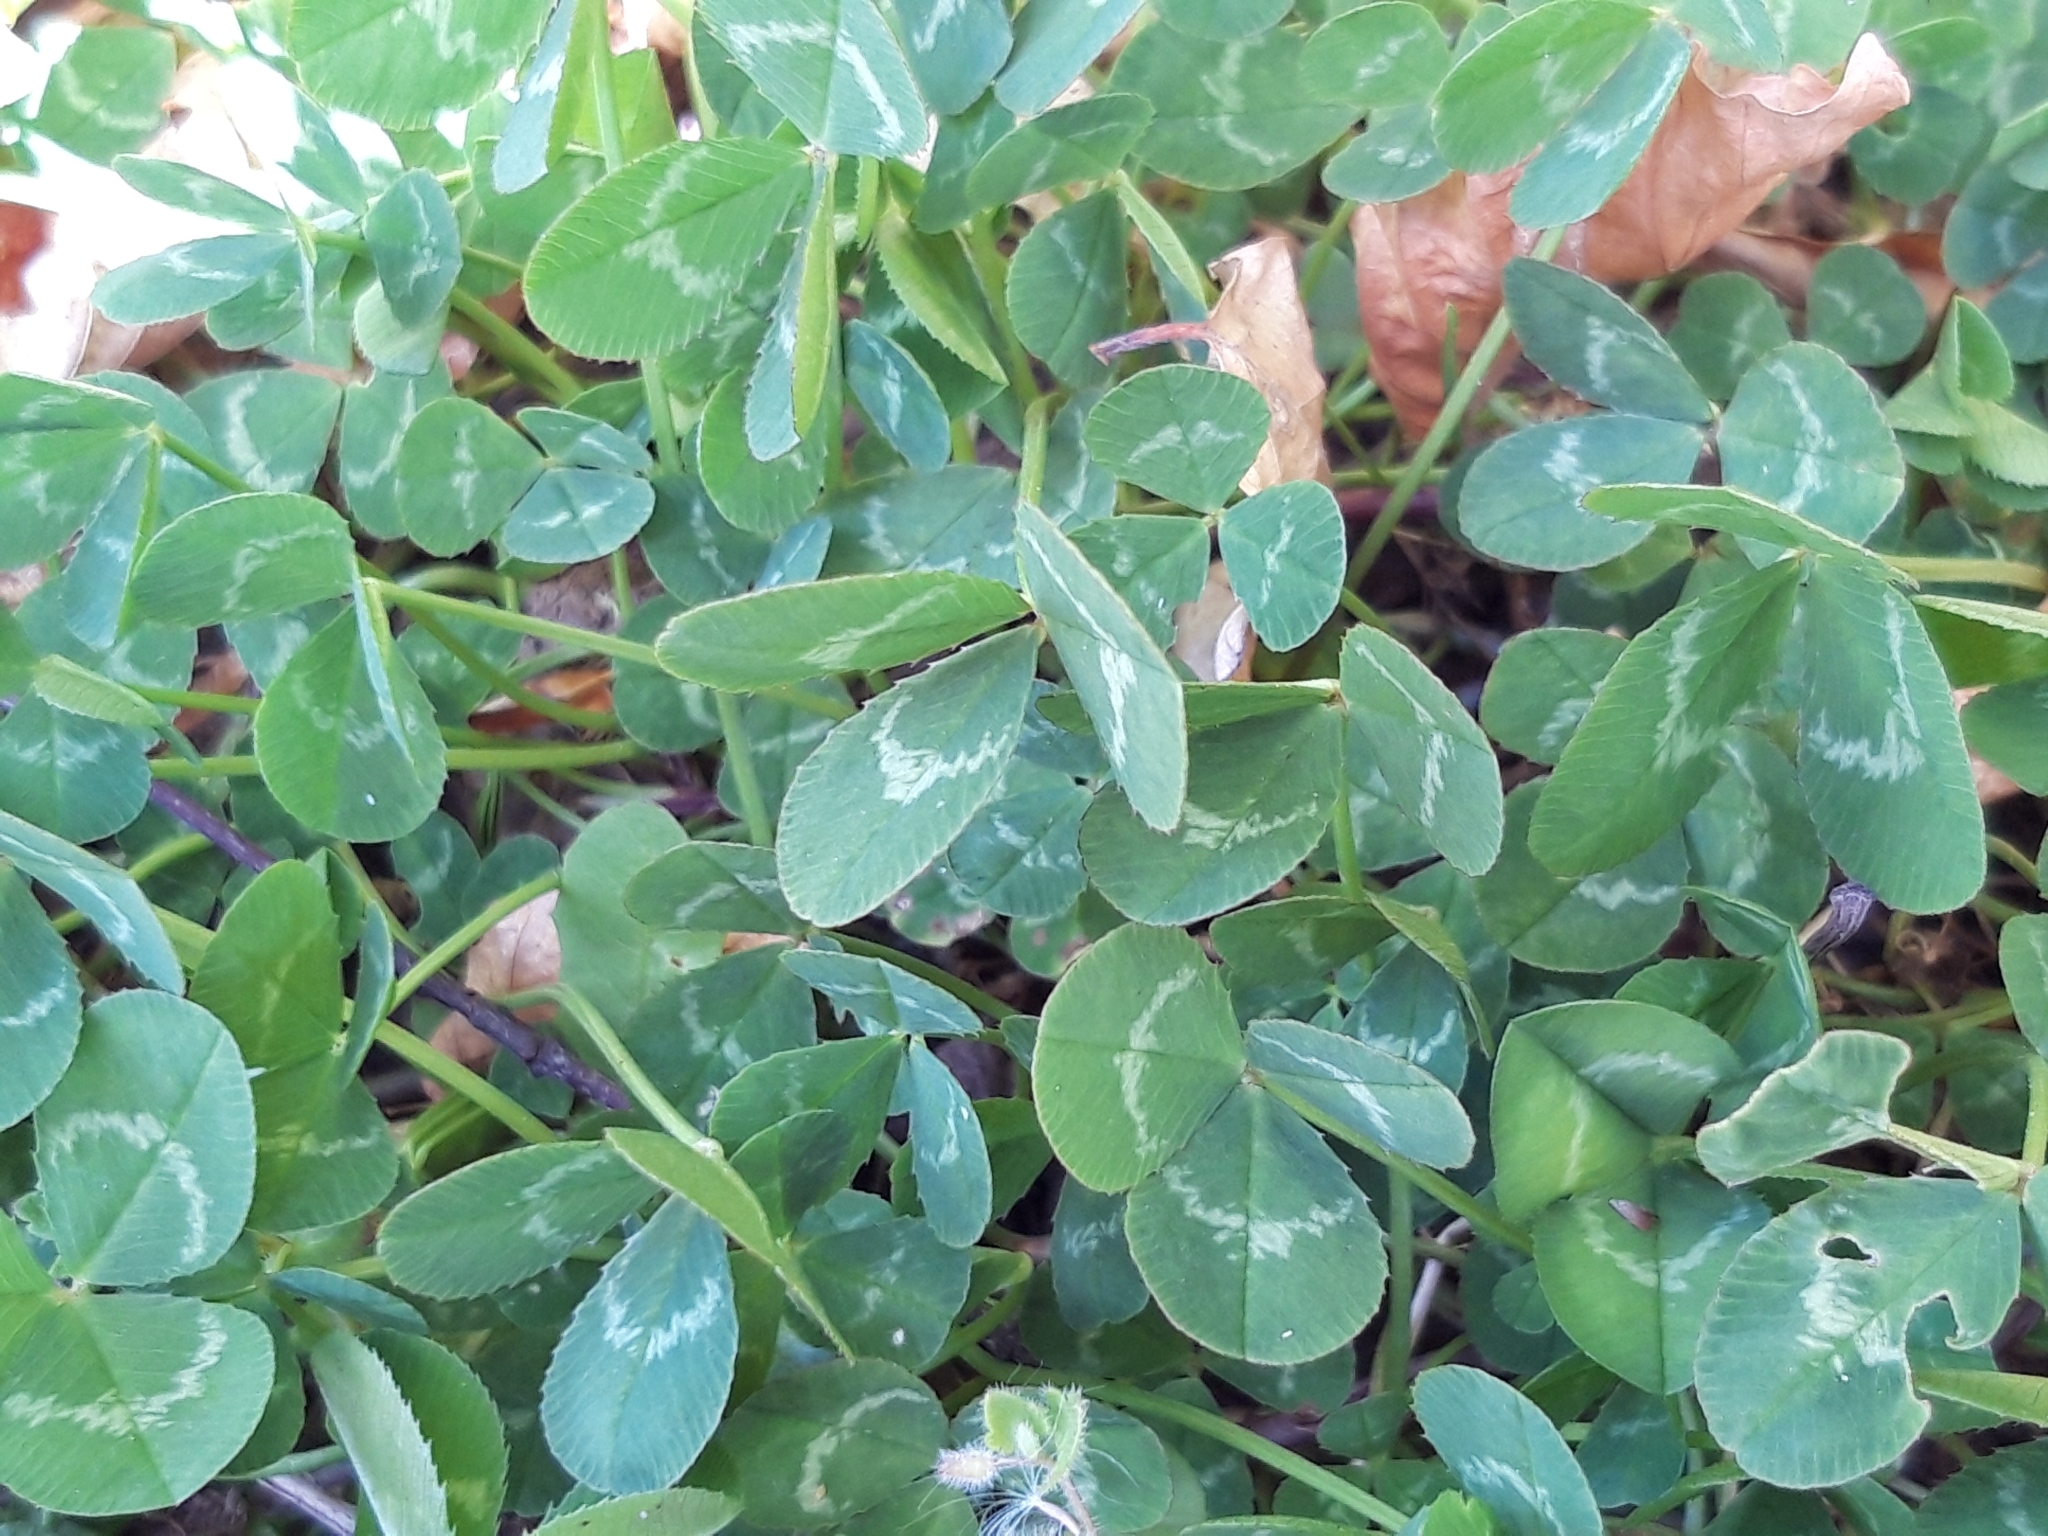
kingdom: Plantae
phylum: Tracheophyta
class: Magnoliopsida
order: Fabales
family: Fabaceae
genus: Trifolium
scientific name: Trifolium repens
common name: White clover
